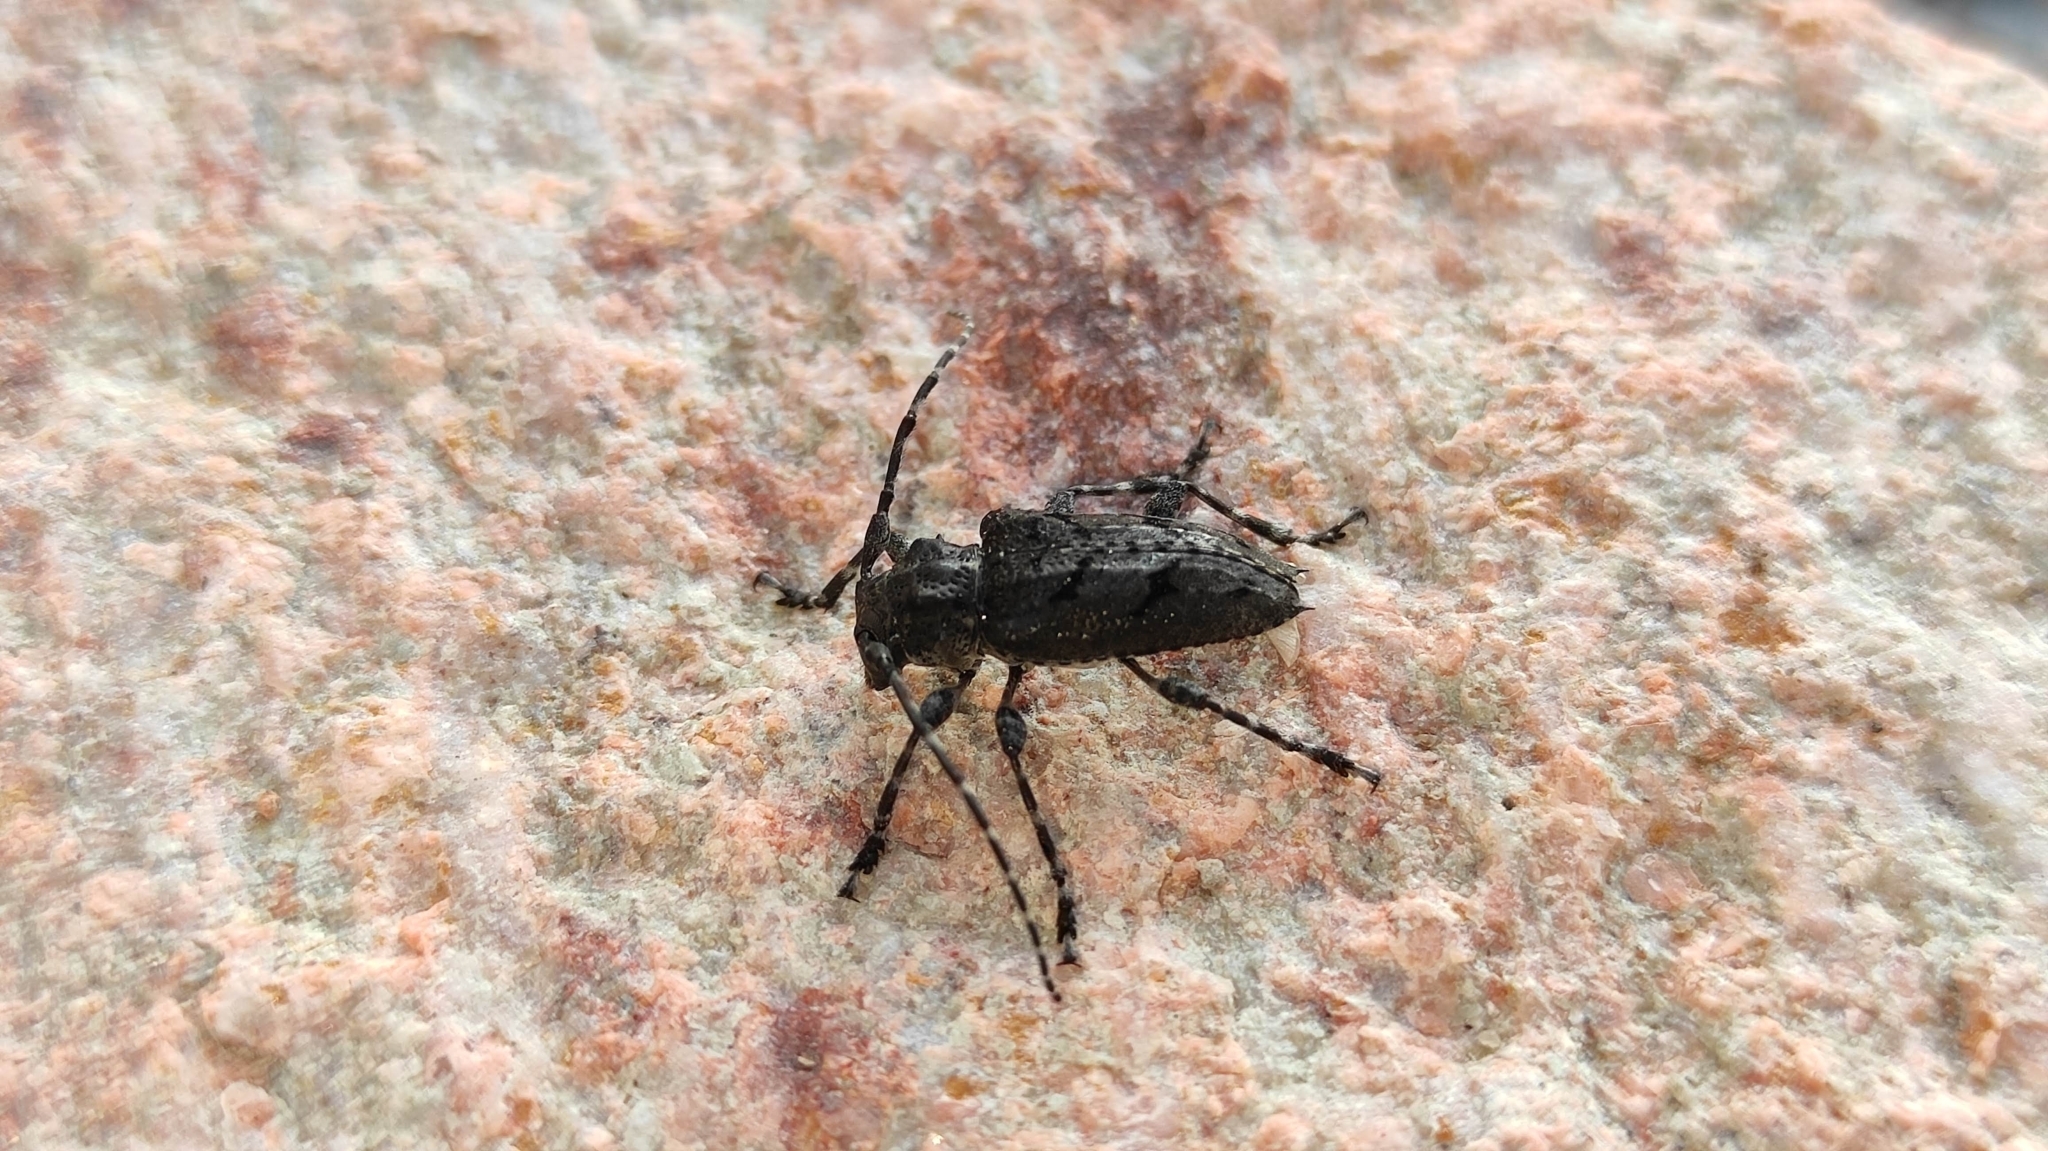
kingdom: Animalia
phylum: Arthropoda
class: Insecta
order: Coleoptera
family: Cerambycidae
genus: Psapharochrus
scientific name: Psapharochrus nigricans
